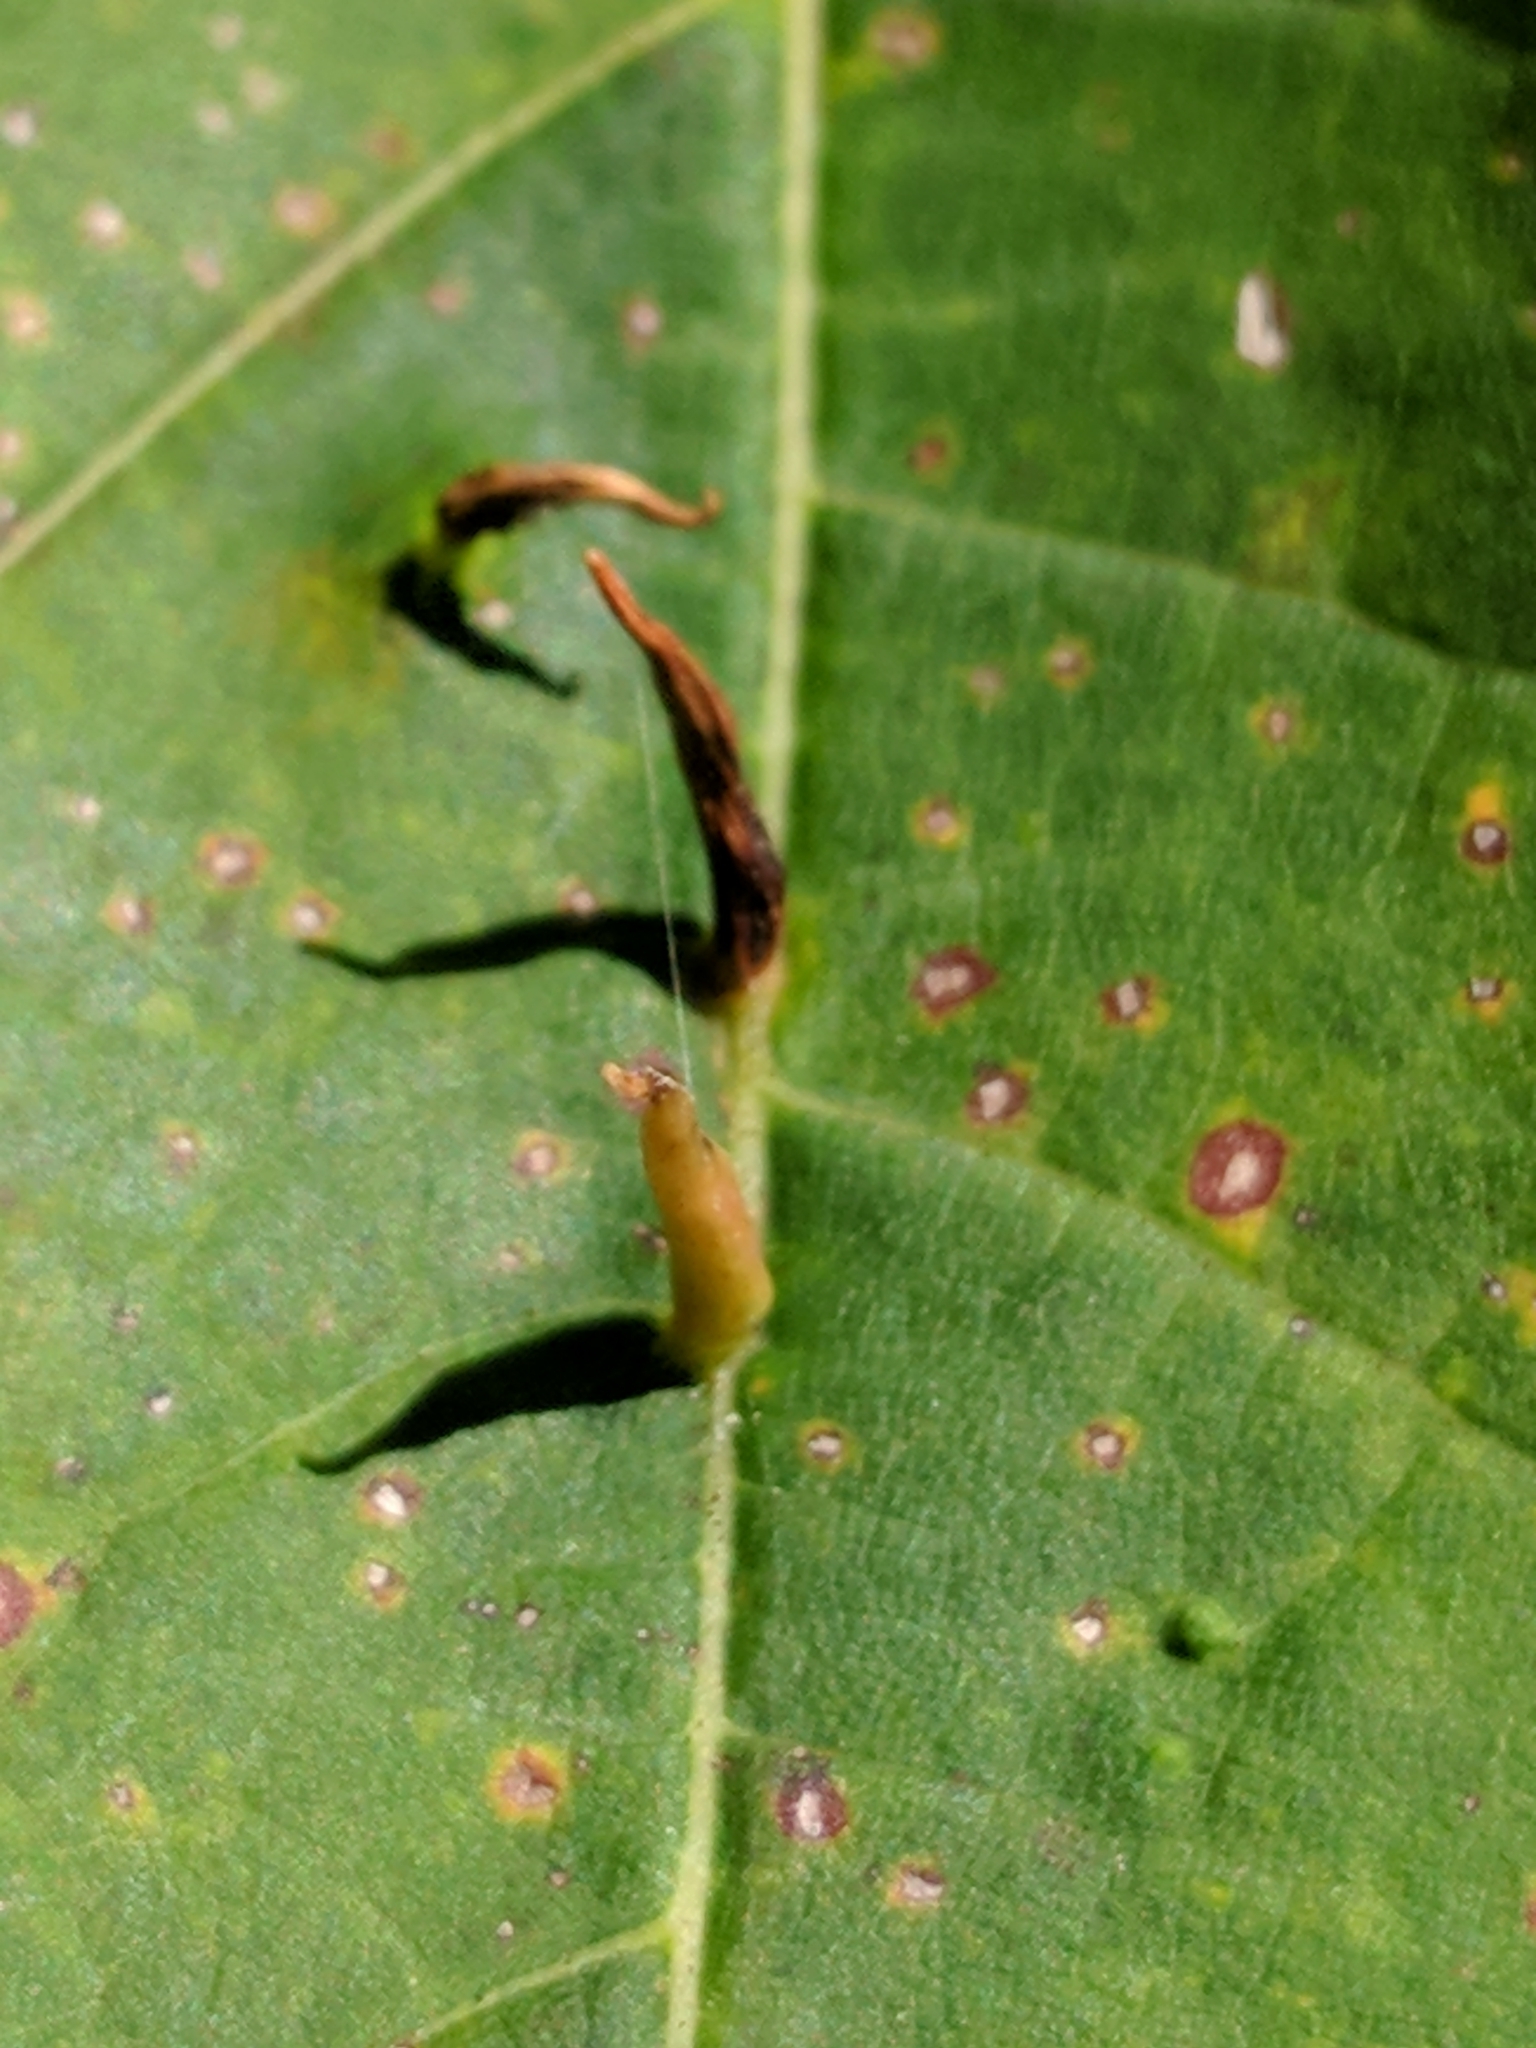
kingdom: Animalia
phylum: Arthropoda
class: Arachnida
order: Trombidiformes
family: Eriophyidae
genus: Vasates
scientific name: Vasates aceriscrumena
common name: Maple spindle gall mite
